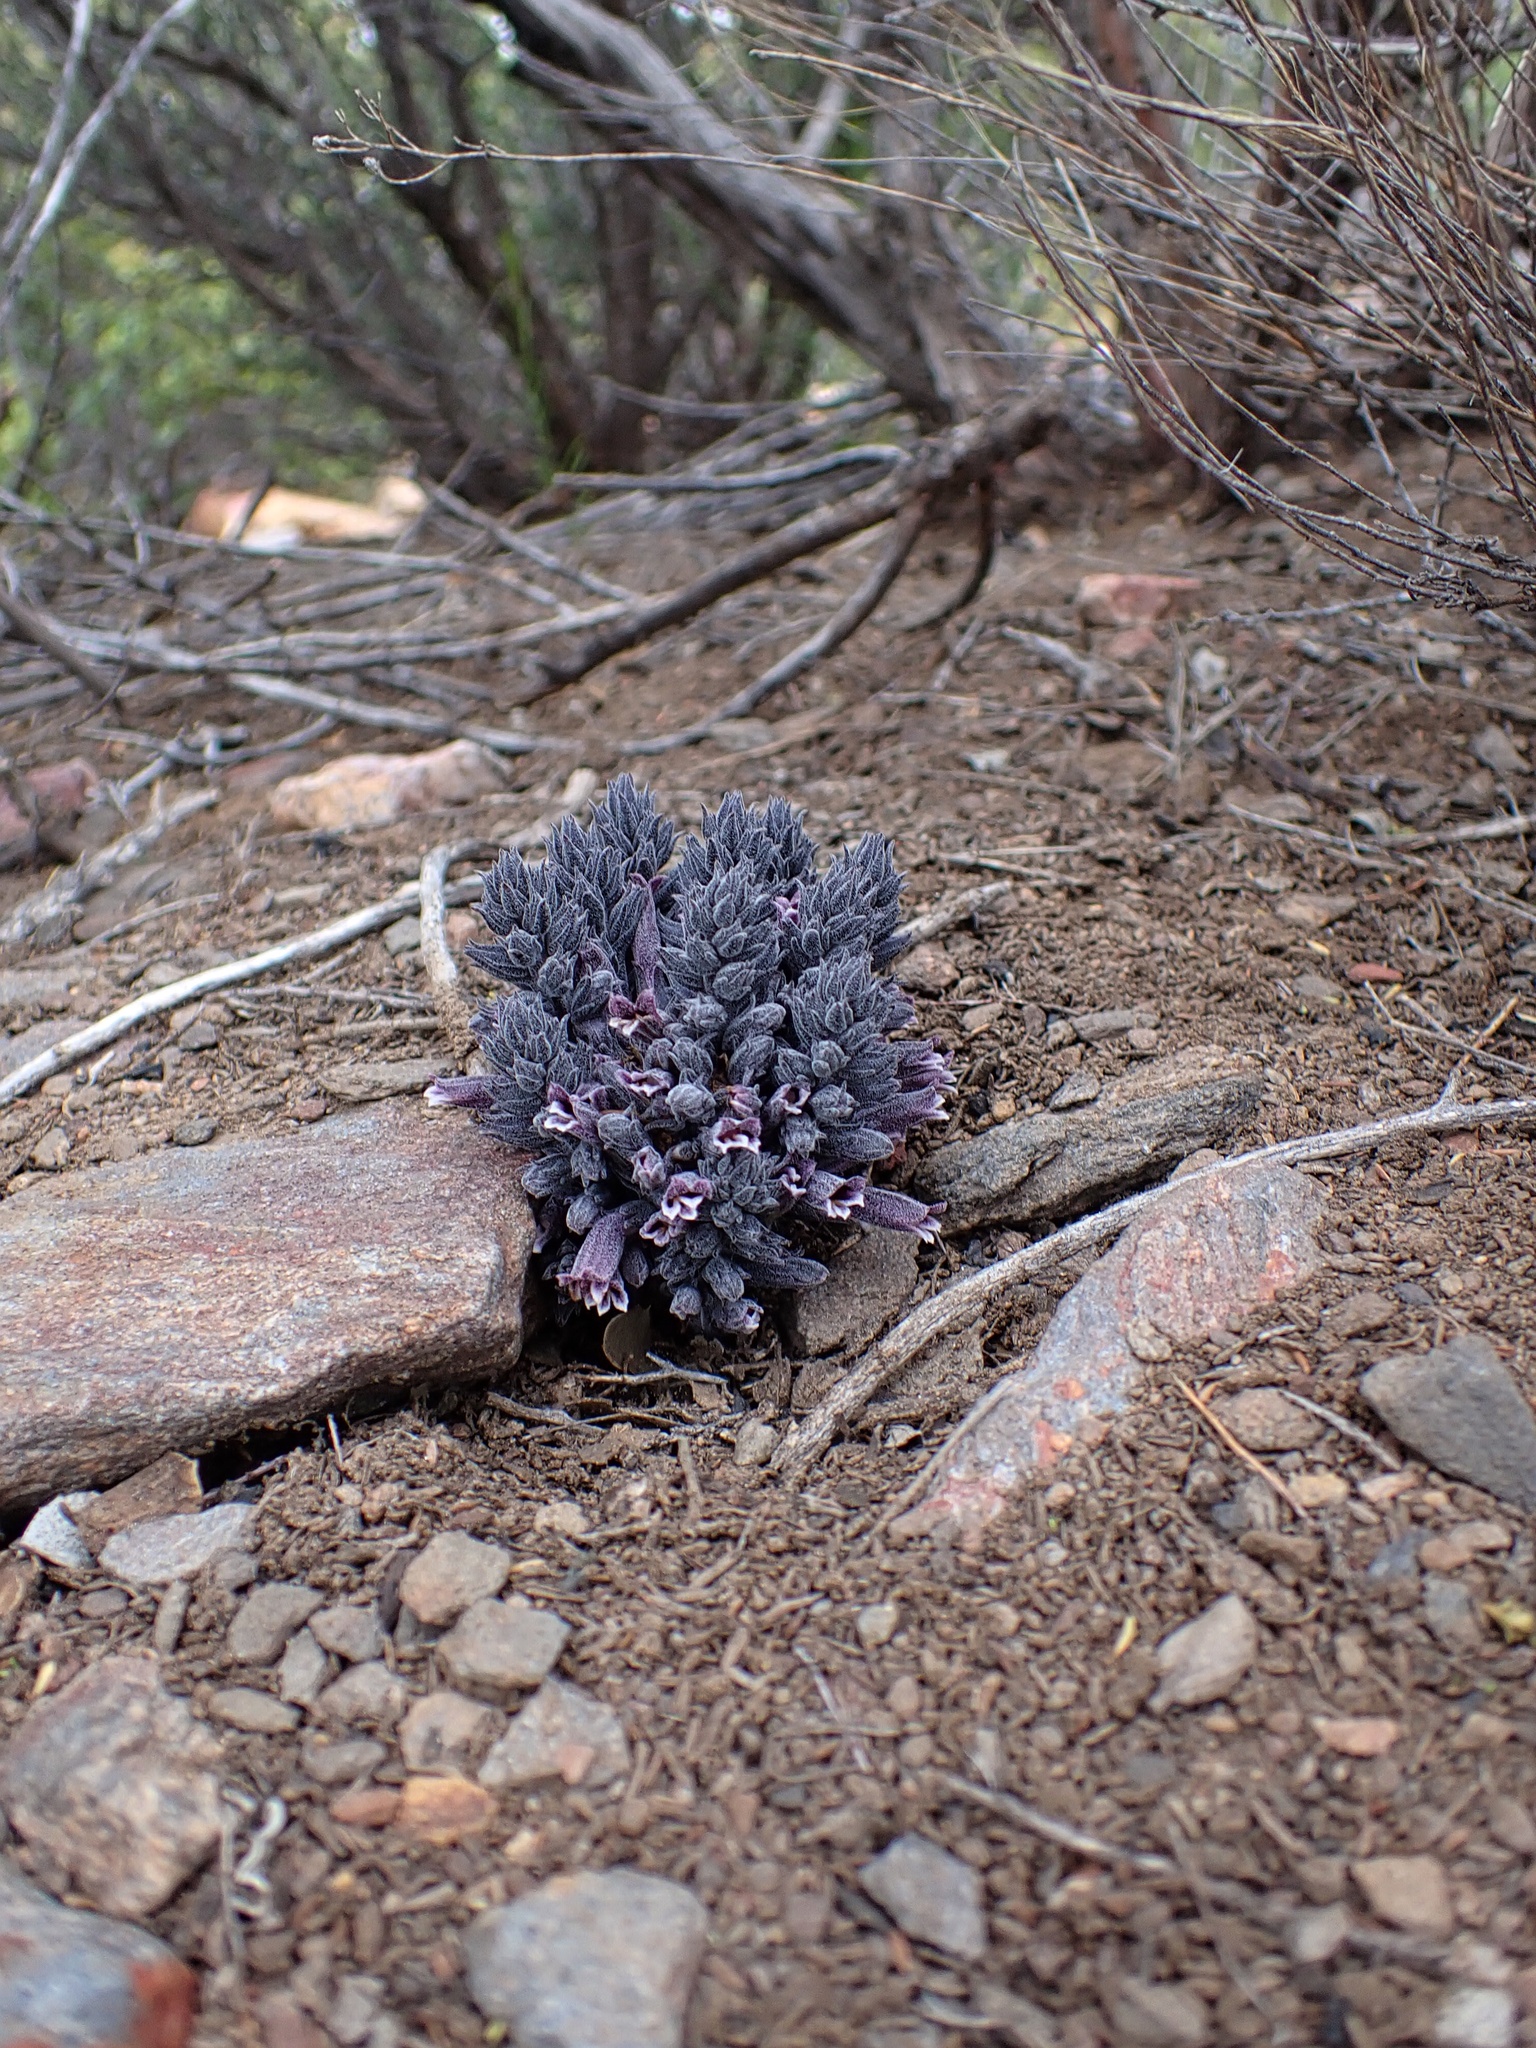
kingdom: Plantae
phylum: Tracheophyta
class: Magnoliopsida
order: Lamiales
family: Orobanchaceae
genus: Aphyllon
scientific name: Aphyllon tuberosum
